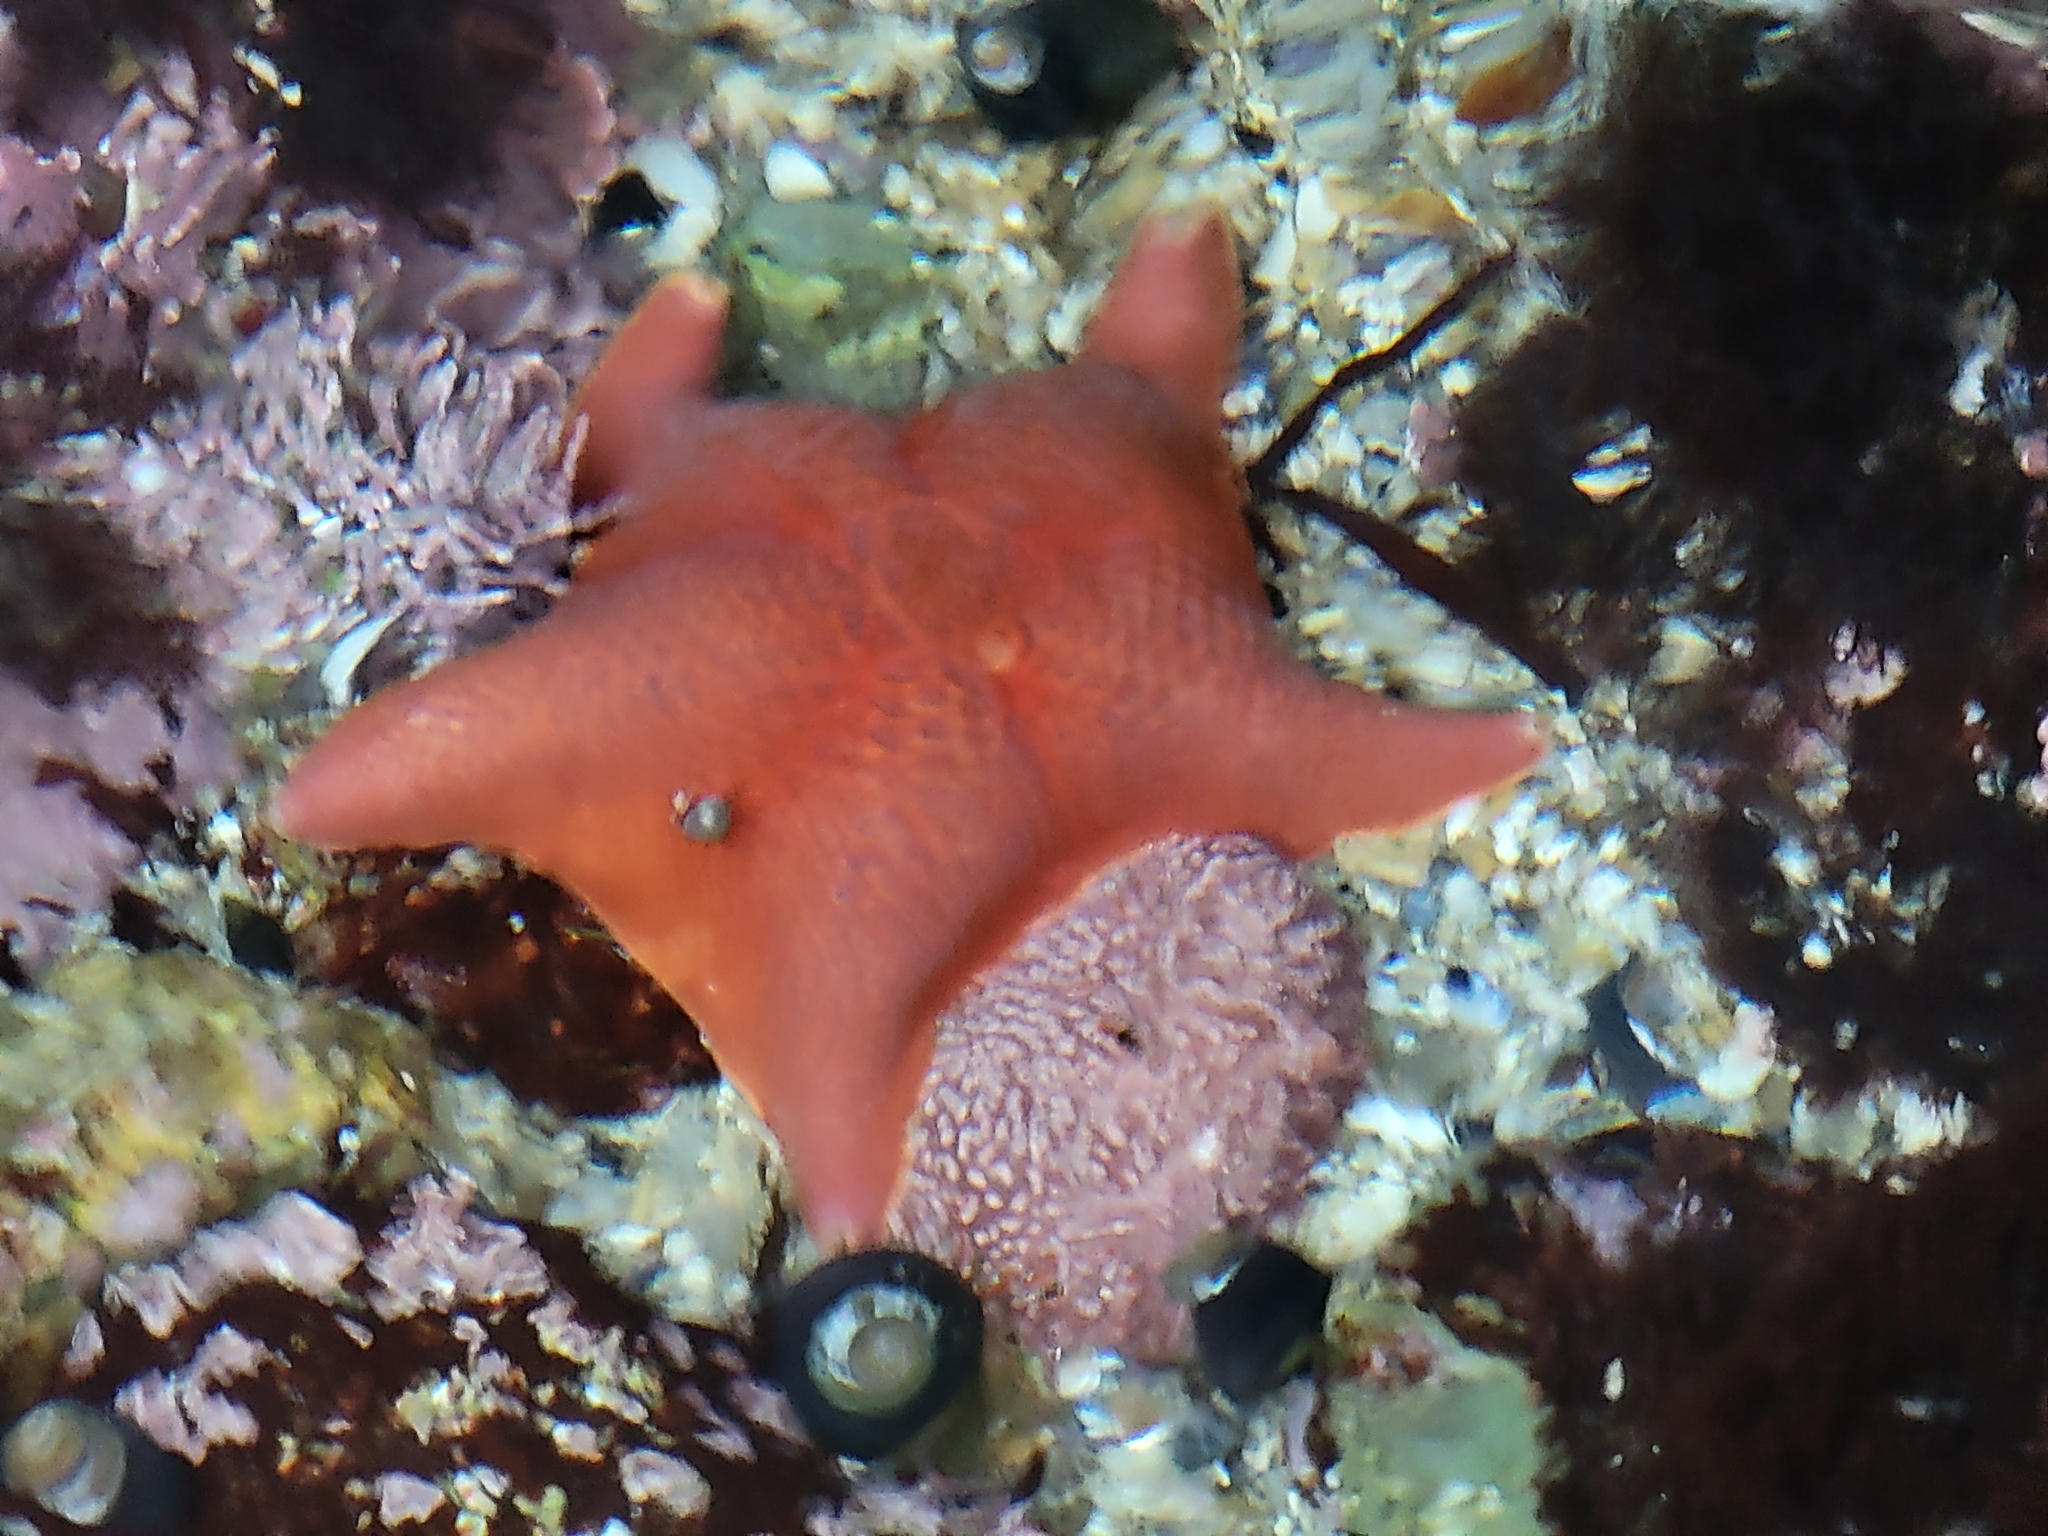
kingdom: Animalia
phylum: Echinodermata
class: Asteroidea
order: Valvatida
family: Asterinidae
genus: Patiria
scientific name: Patiria miniata
